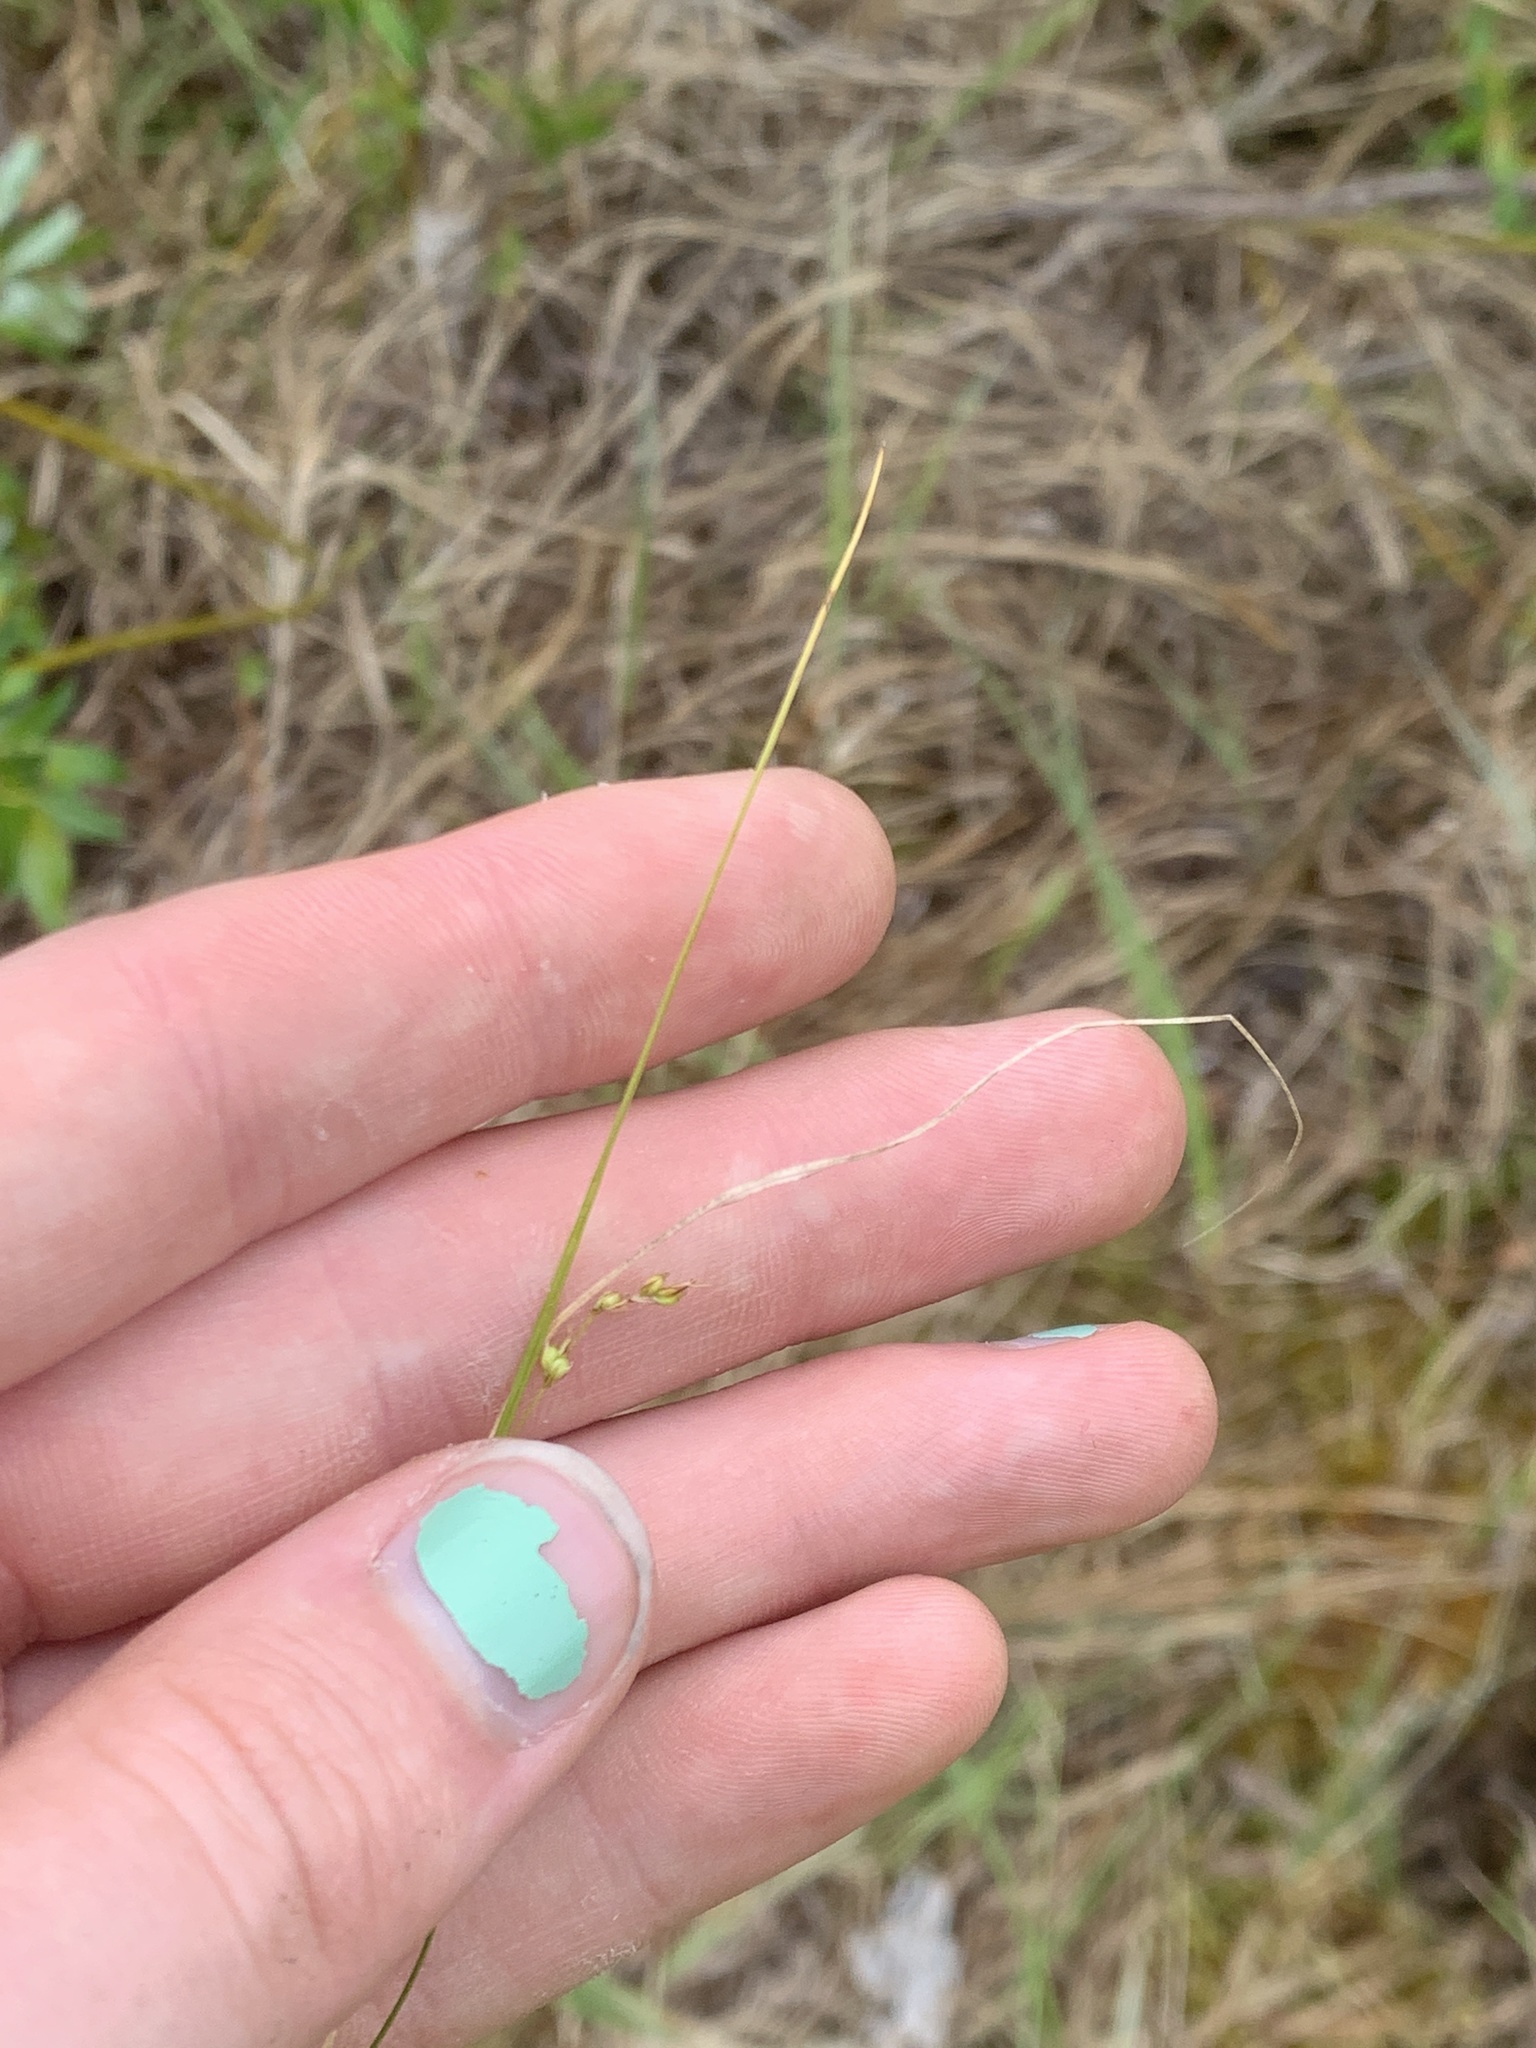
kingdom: Plantae
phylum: Tracheophyta
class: Liliopsida
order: Poales
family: Cyperaceae
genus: Carex
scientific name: Carex disperma
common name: Short-leaved sedge
